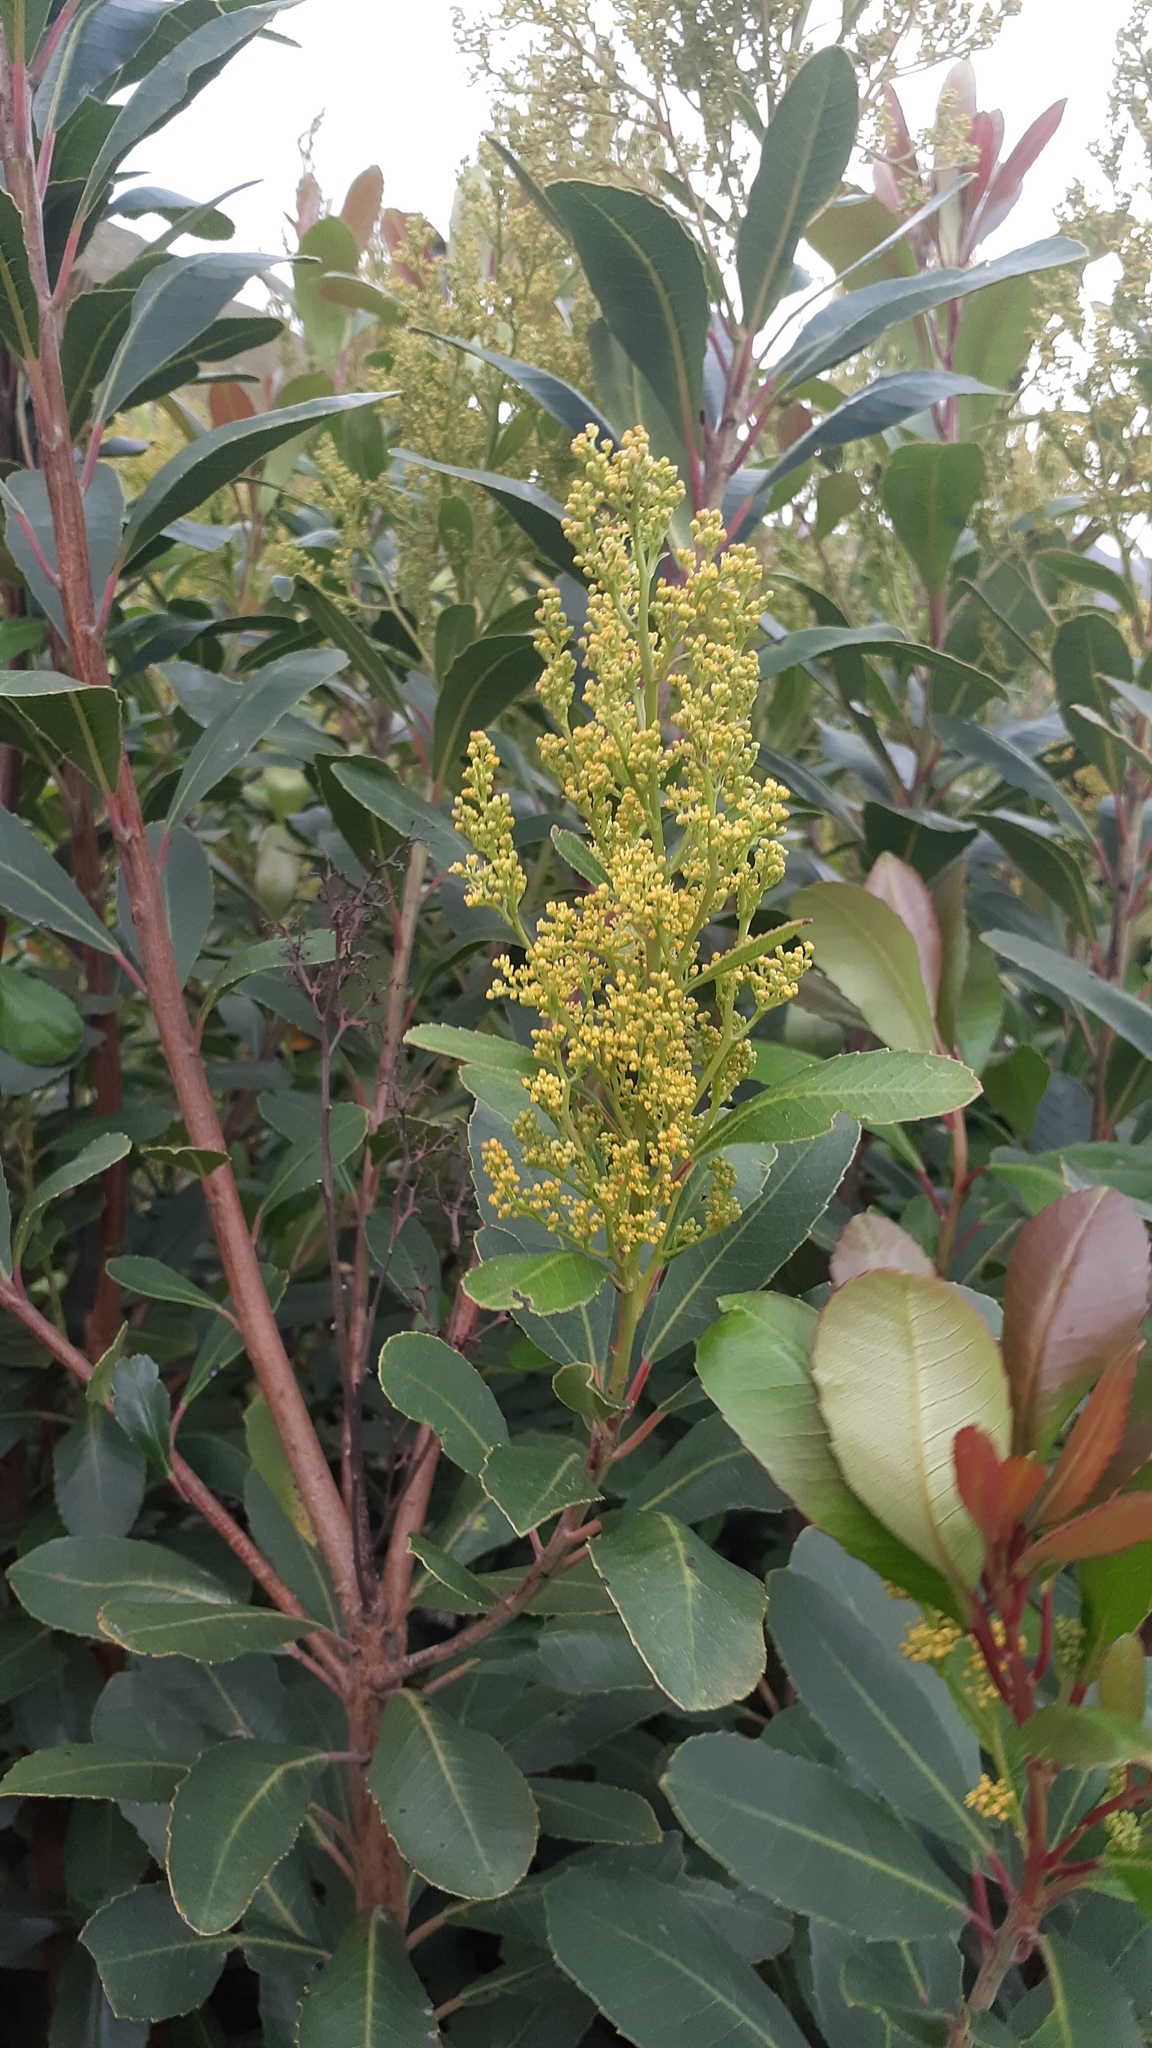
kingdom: Plantae
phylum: Tracheophyta
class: Magnoliopsida
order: Sapindales
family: Anacardiaceae
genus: Laurophyllus
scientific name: Laurophyllus capensis
